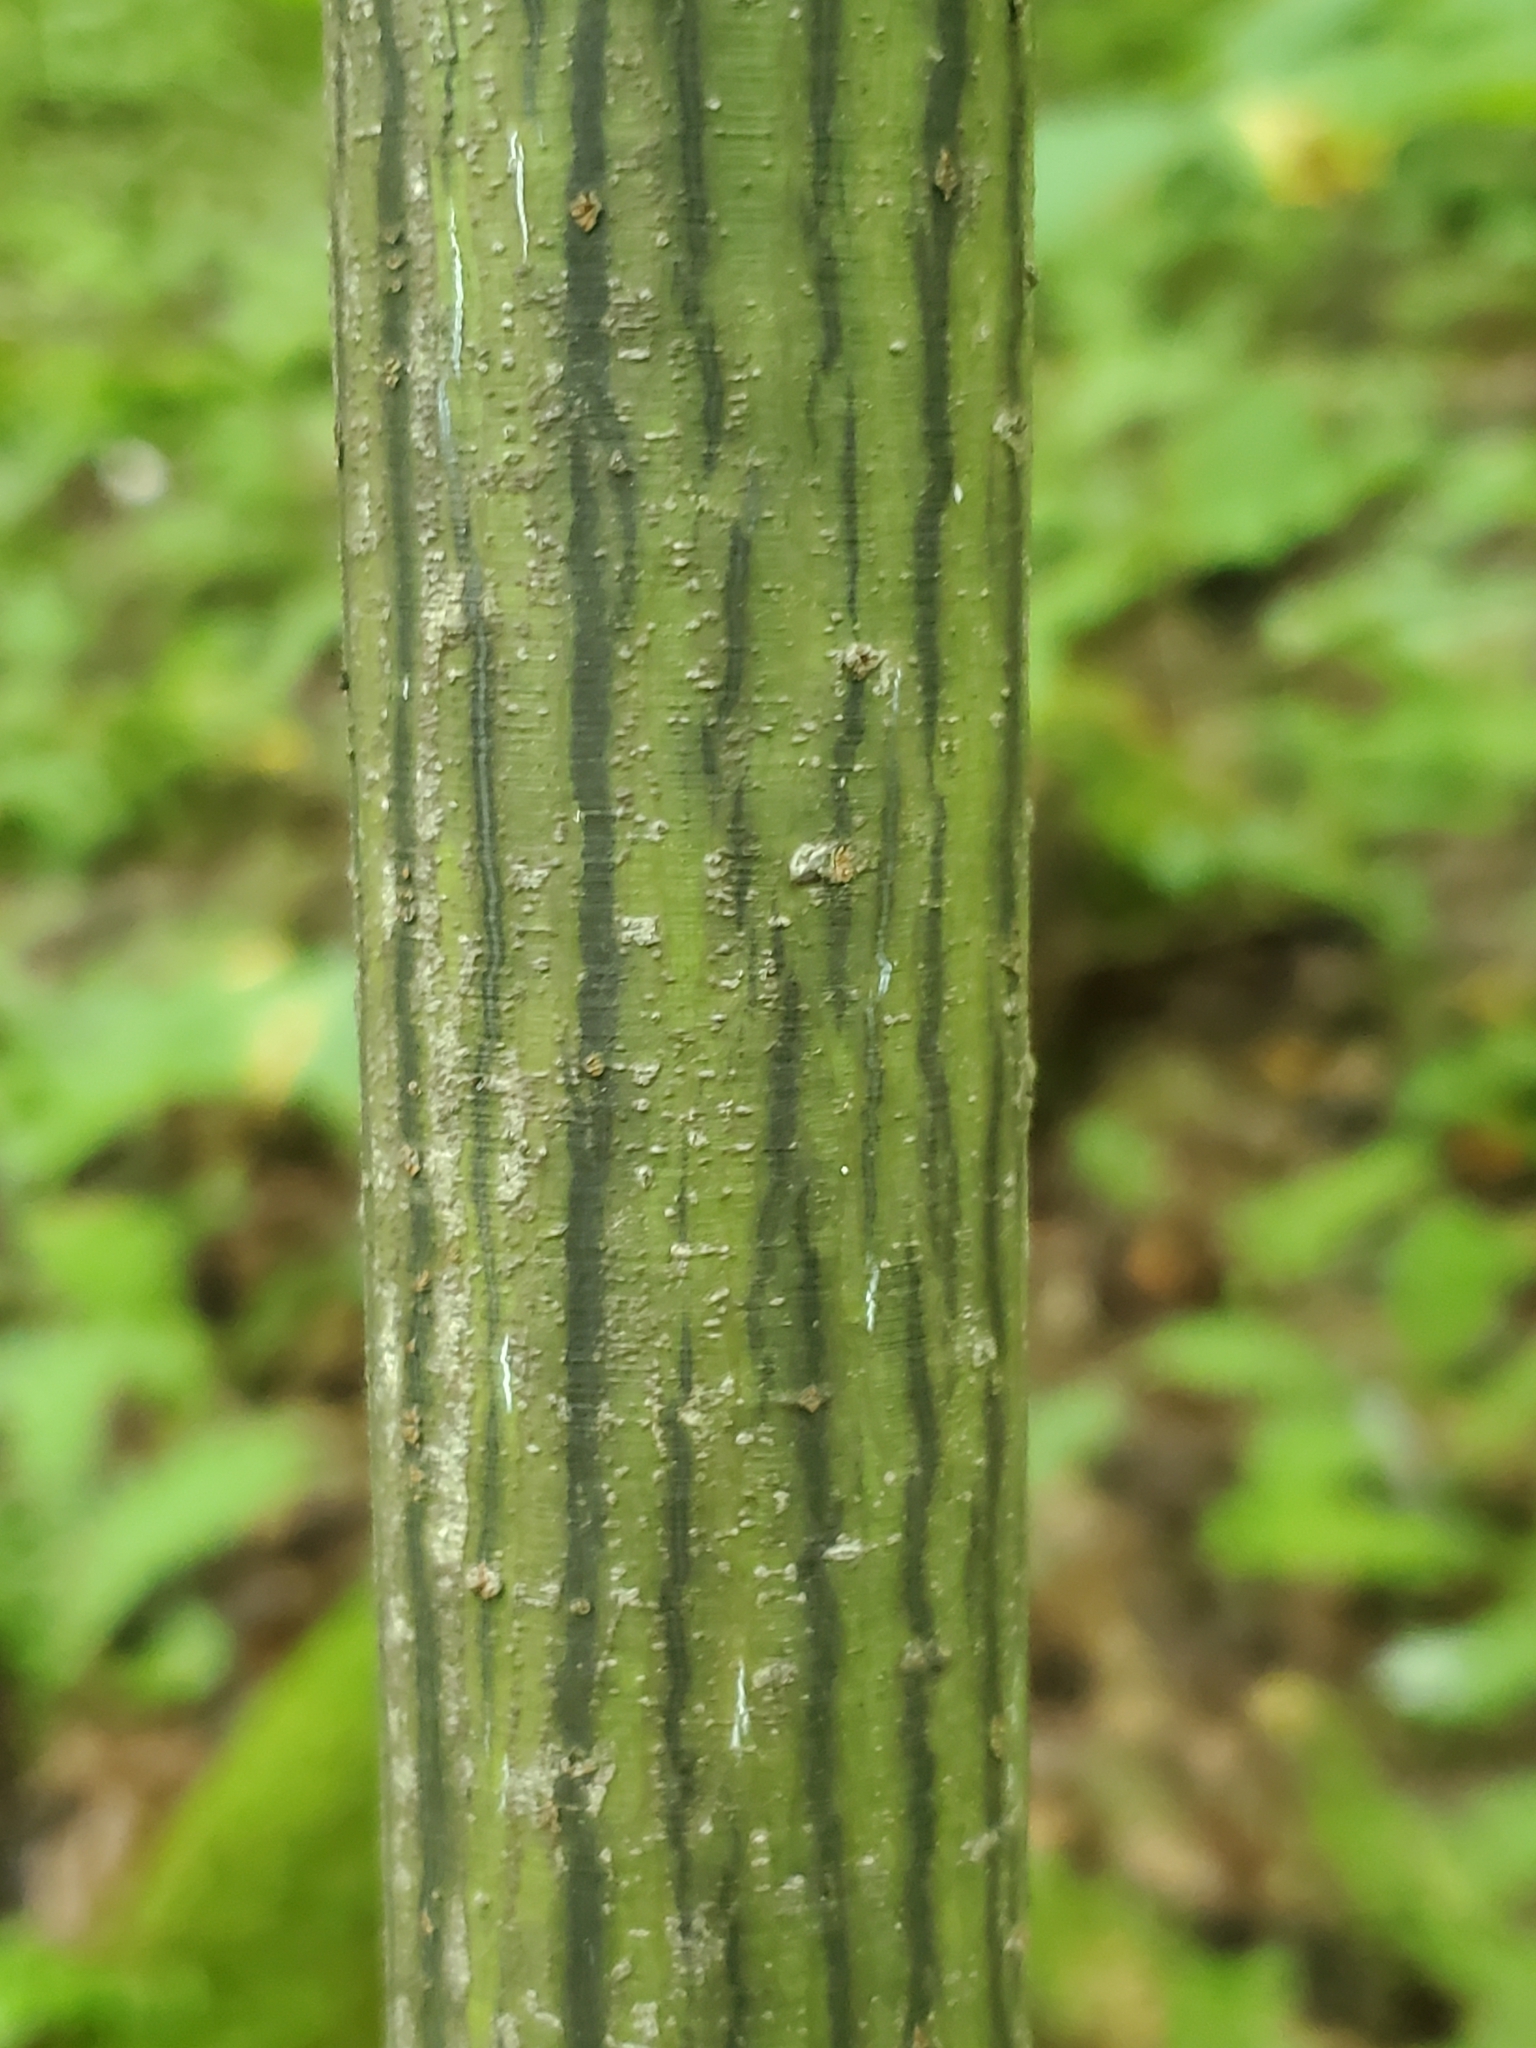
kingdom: Plantae
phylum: Tracheophyta
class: Magnoliopsida
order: Sapindales
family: Sapindaceae
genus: Acer
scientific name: Acer pensylvanicum
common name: Moosewood
